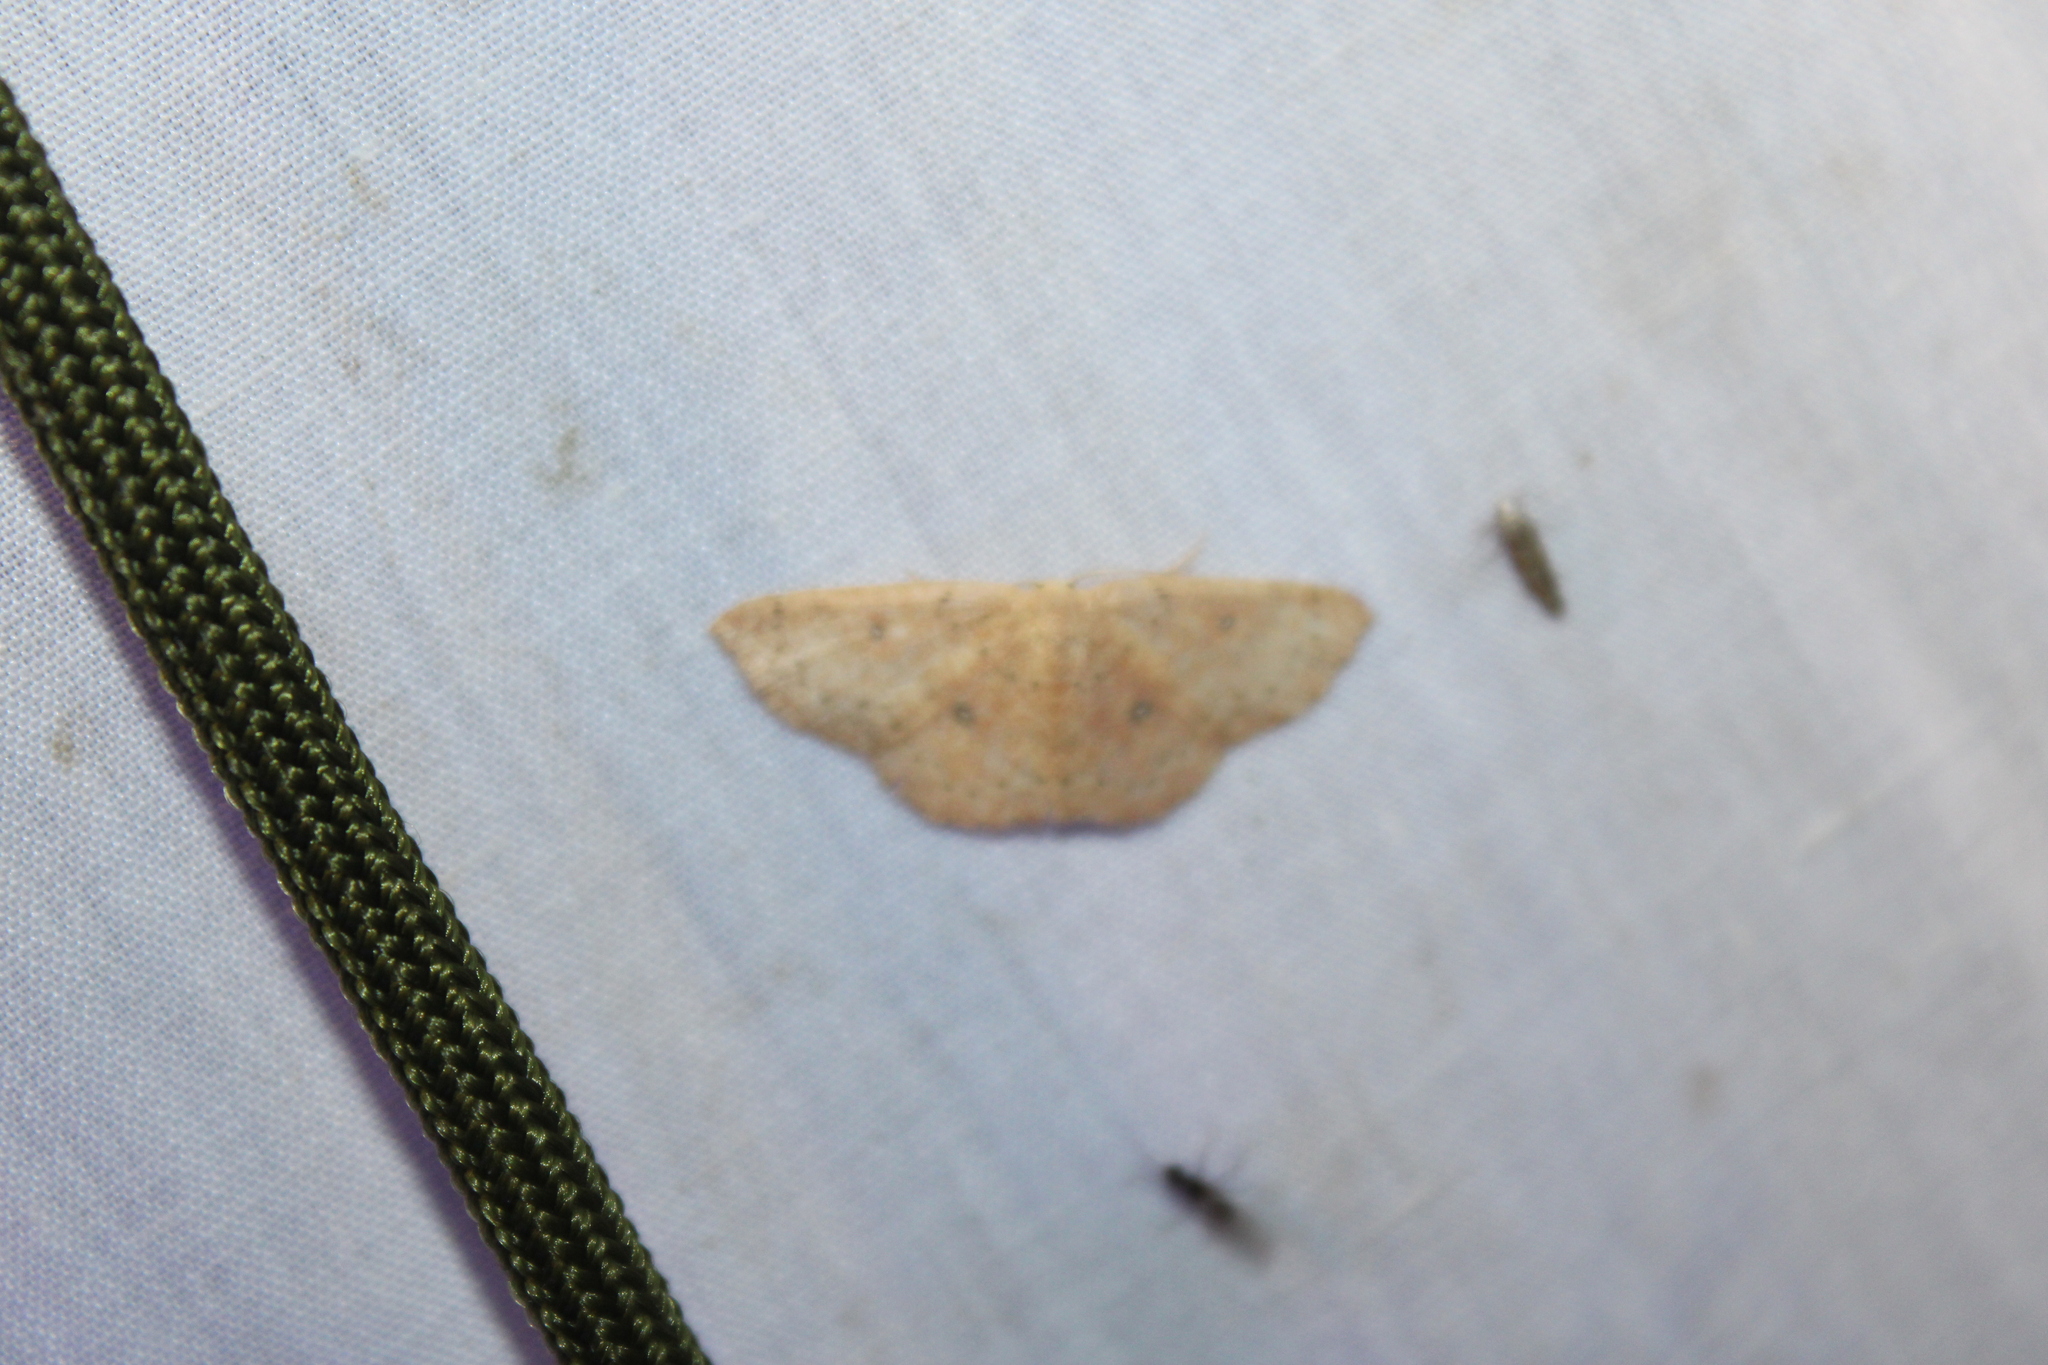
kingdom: Animalia
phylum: Arthropoda
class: Insecta
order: Lepidoptera
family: Geometridae
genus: Cyclophora
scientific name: Cyclophora packardi
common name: Packard's wave
